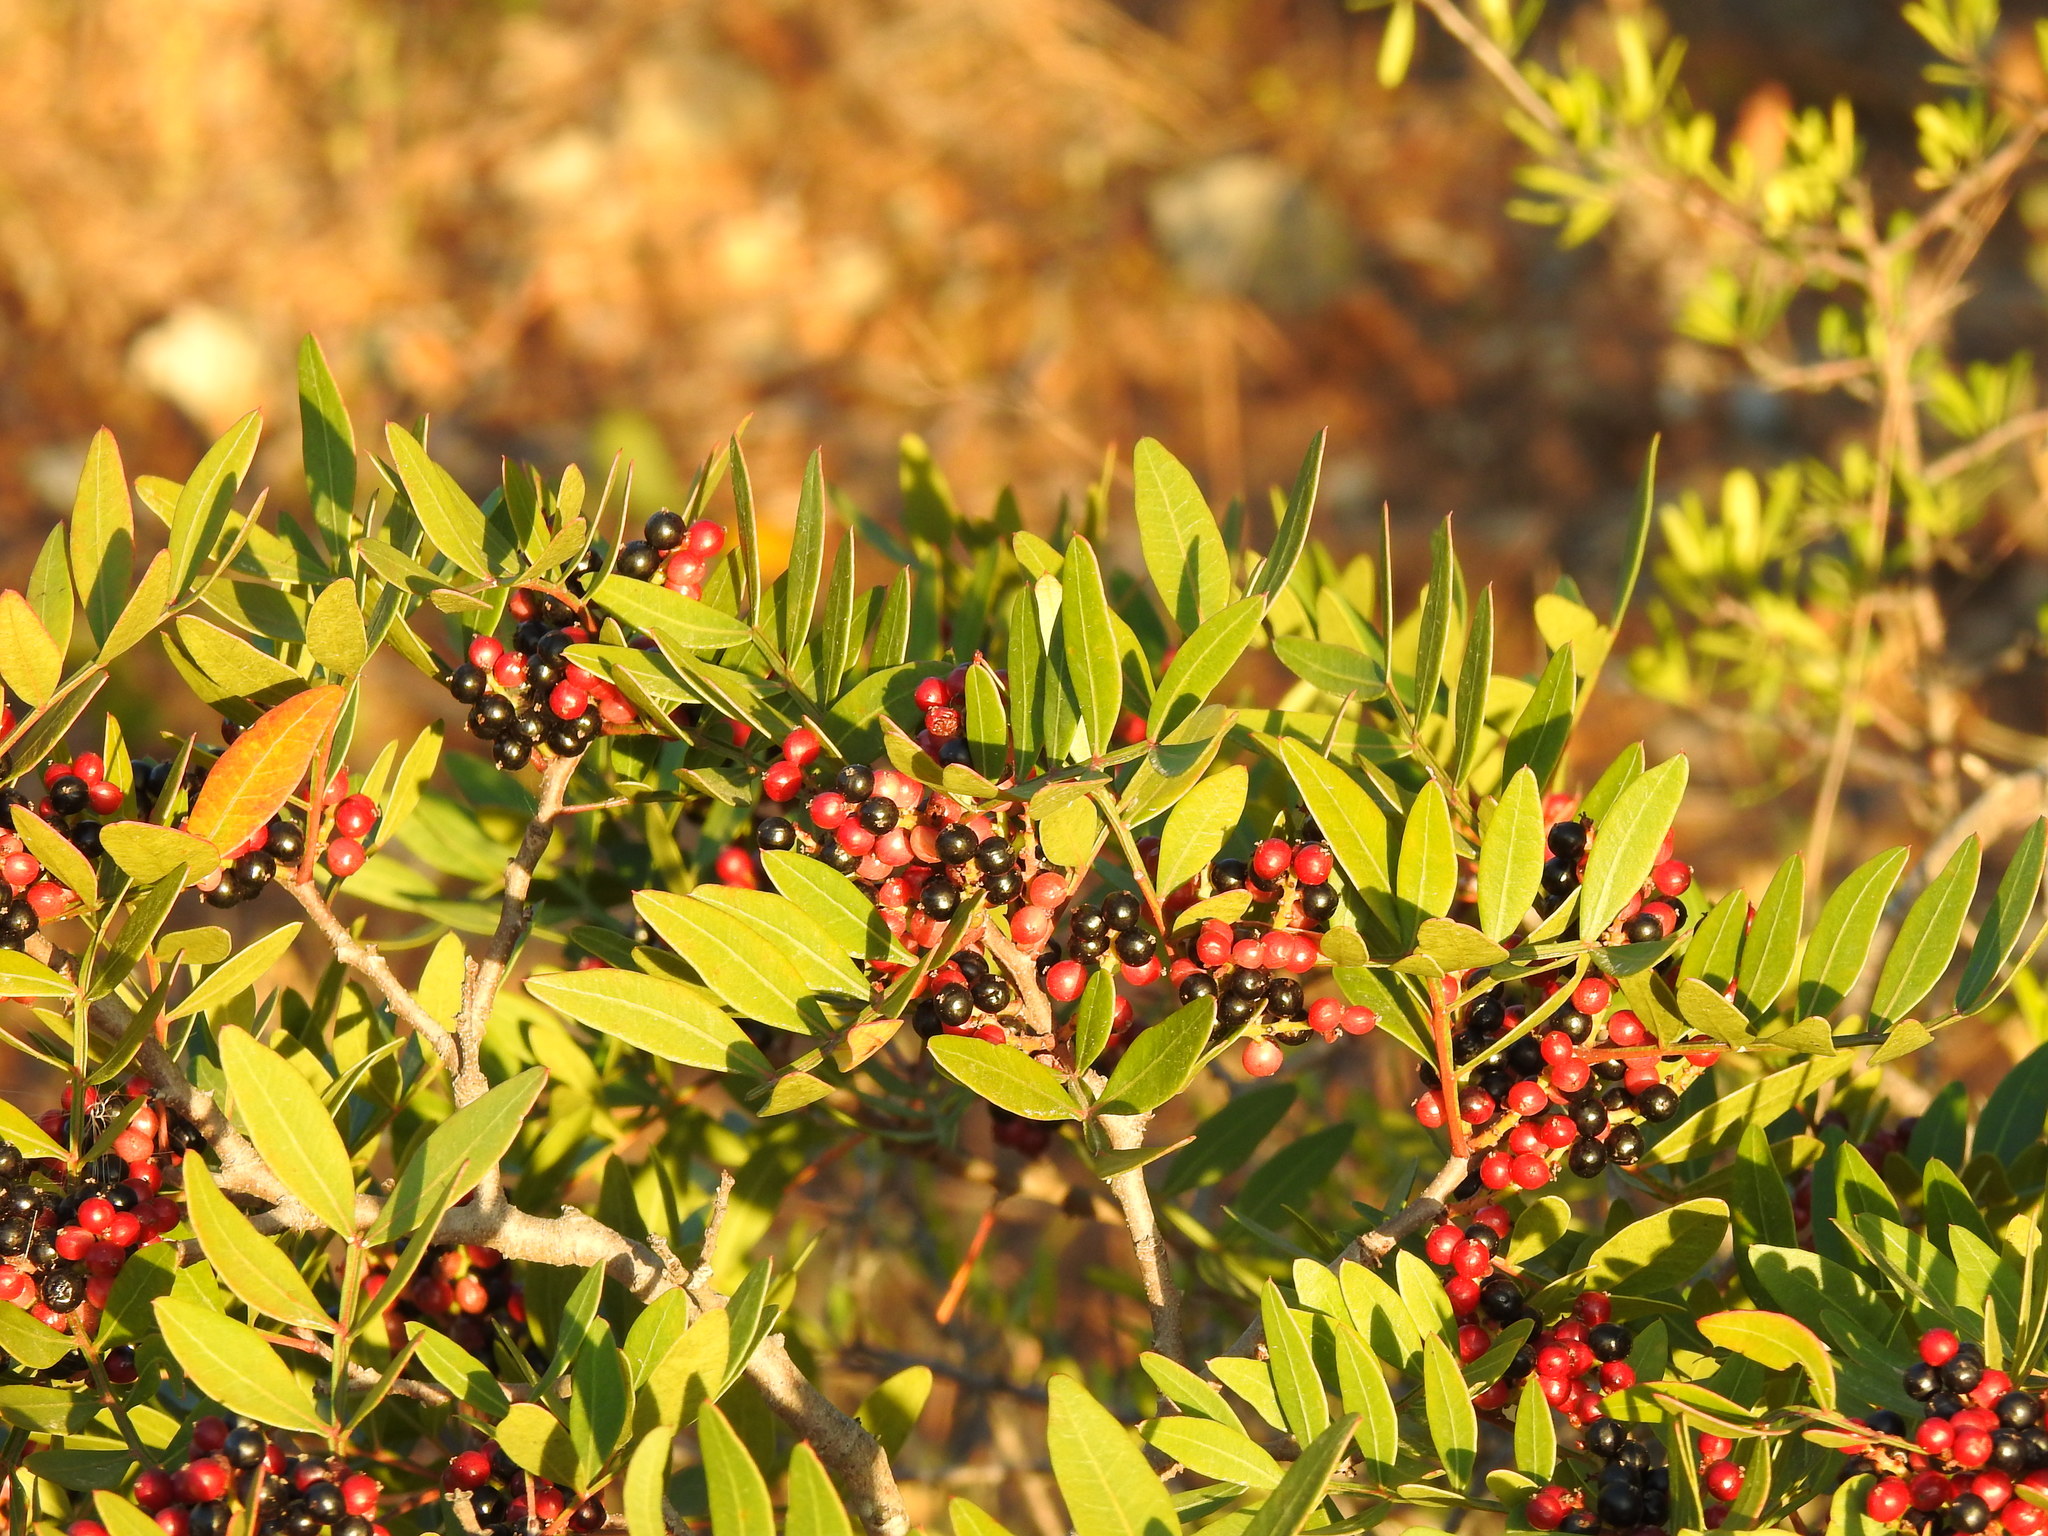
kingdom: Plantae
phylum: Tracheophyta
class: Magnoliopsida
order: Sapindales
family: Anacardiaceae
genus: Pistacia
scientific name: Pistacia lentiscus
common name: Lentisk
